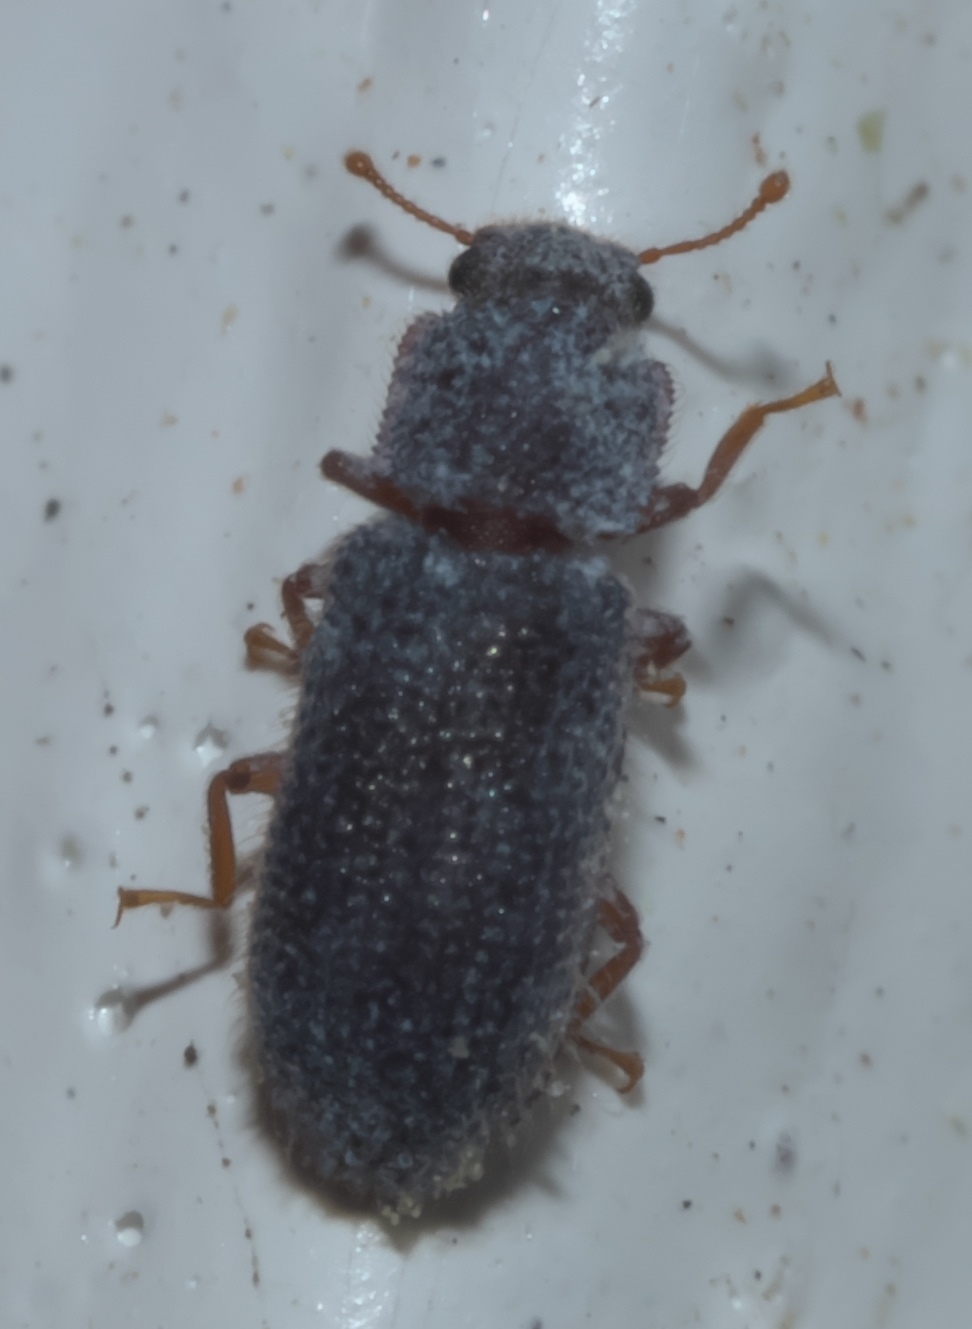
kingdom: Animalia
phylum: Arthropoda
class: Insecta
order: Coleoptera
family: Zopheridae
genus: Endeitoma
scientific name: Endeitoma granulata
